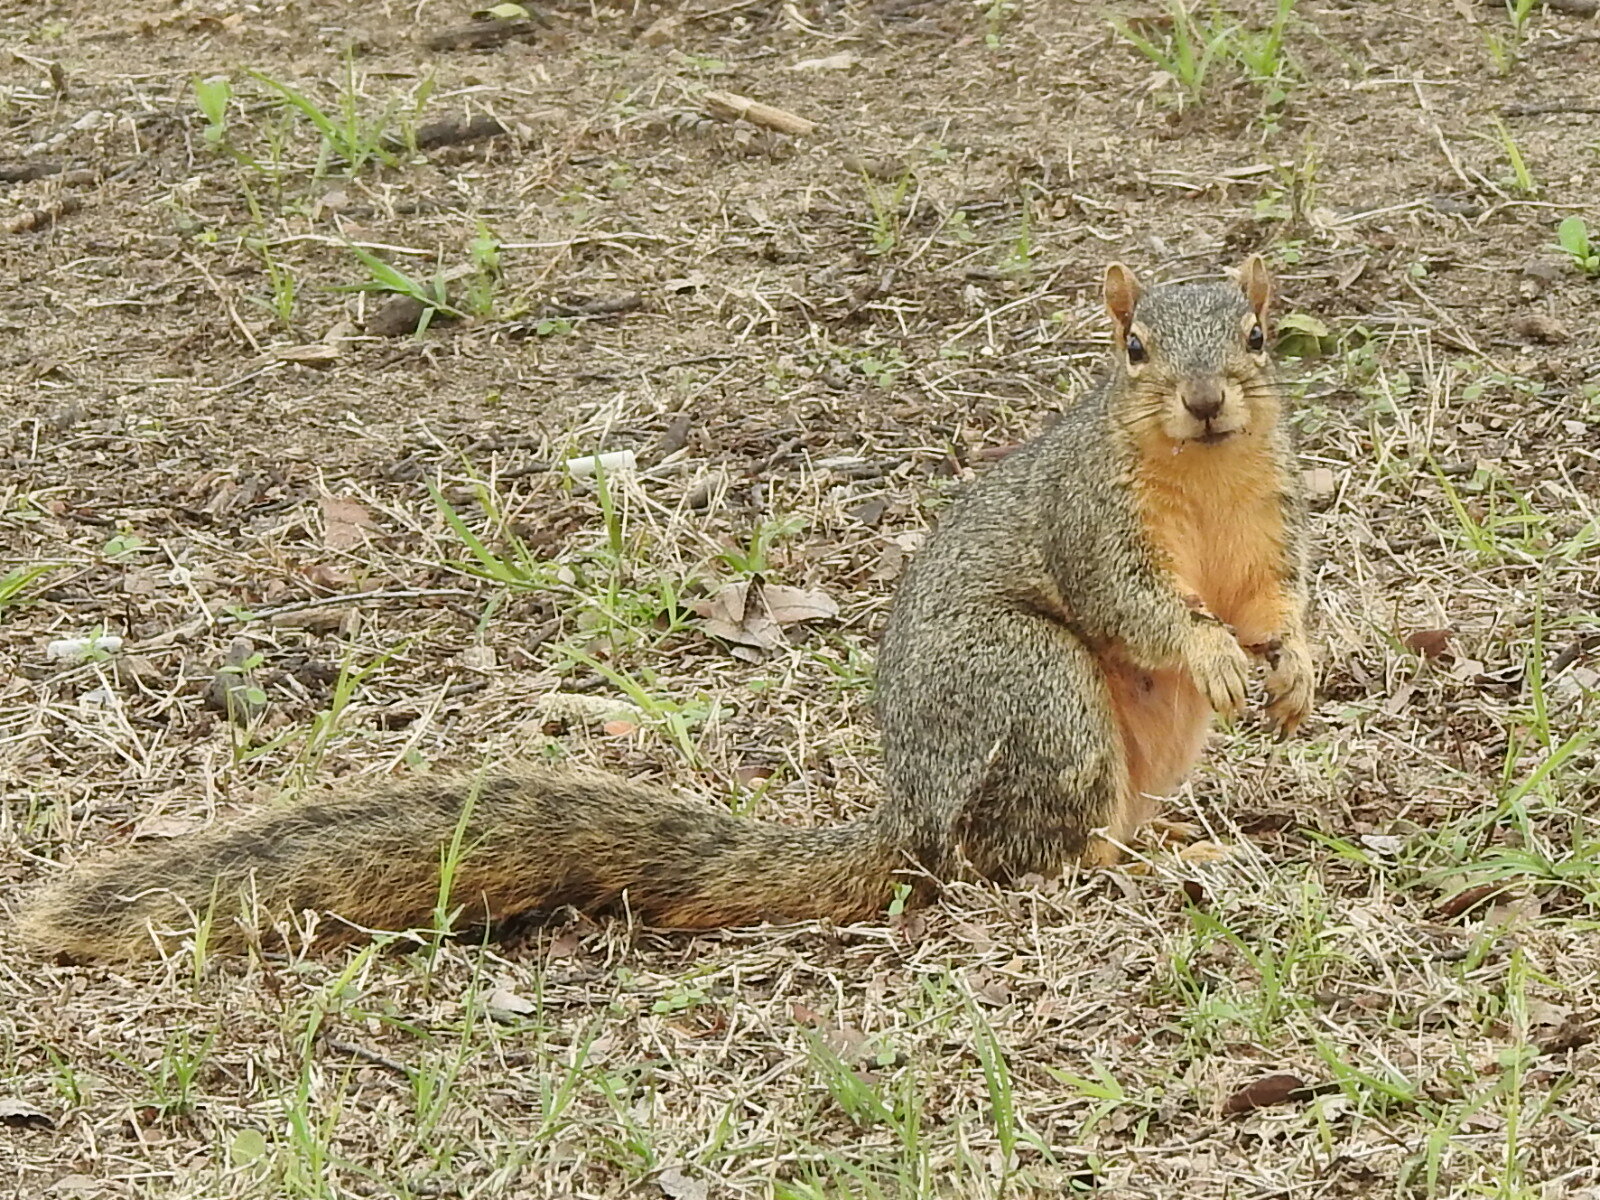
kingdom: Animalia
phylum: Chordata
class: Mammalia
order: Rodentia
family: Sciuridae
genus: Sciurus
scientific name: Sciurus niger
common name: Fox squirrel
